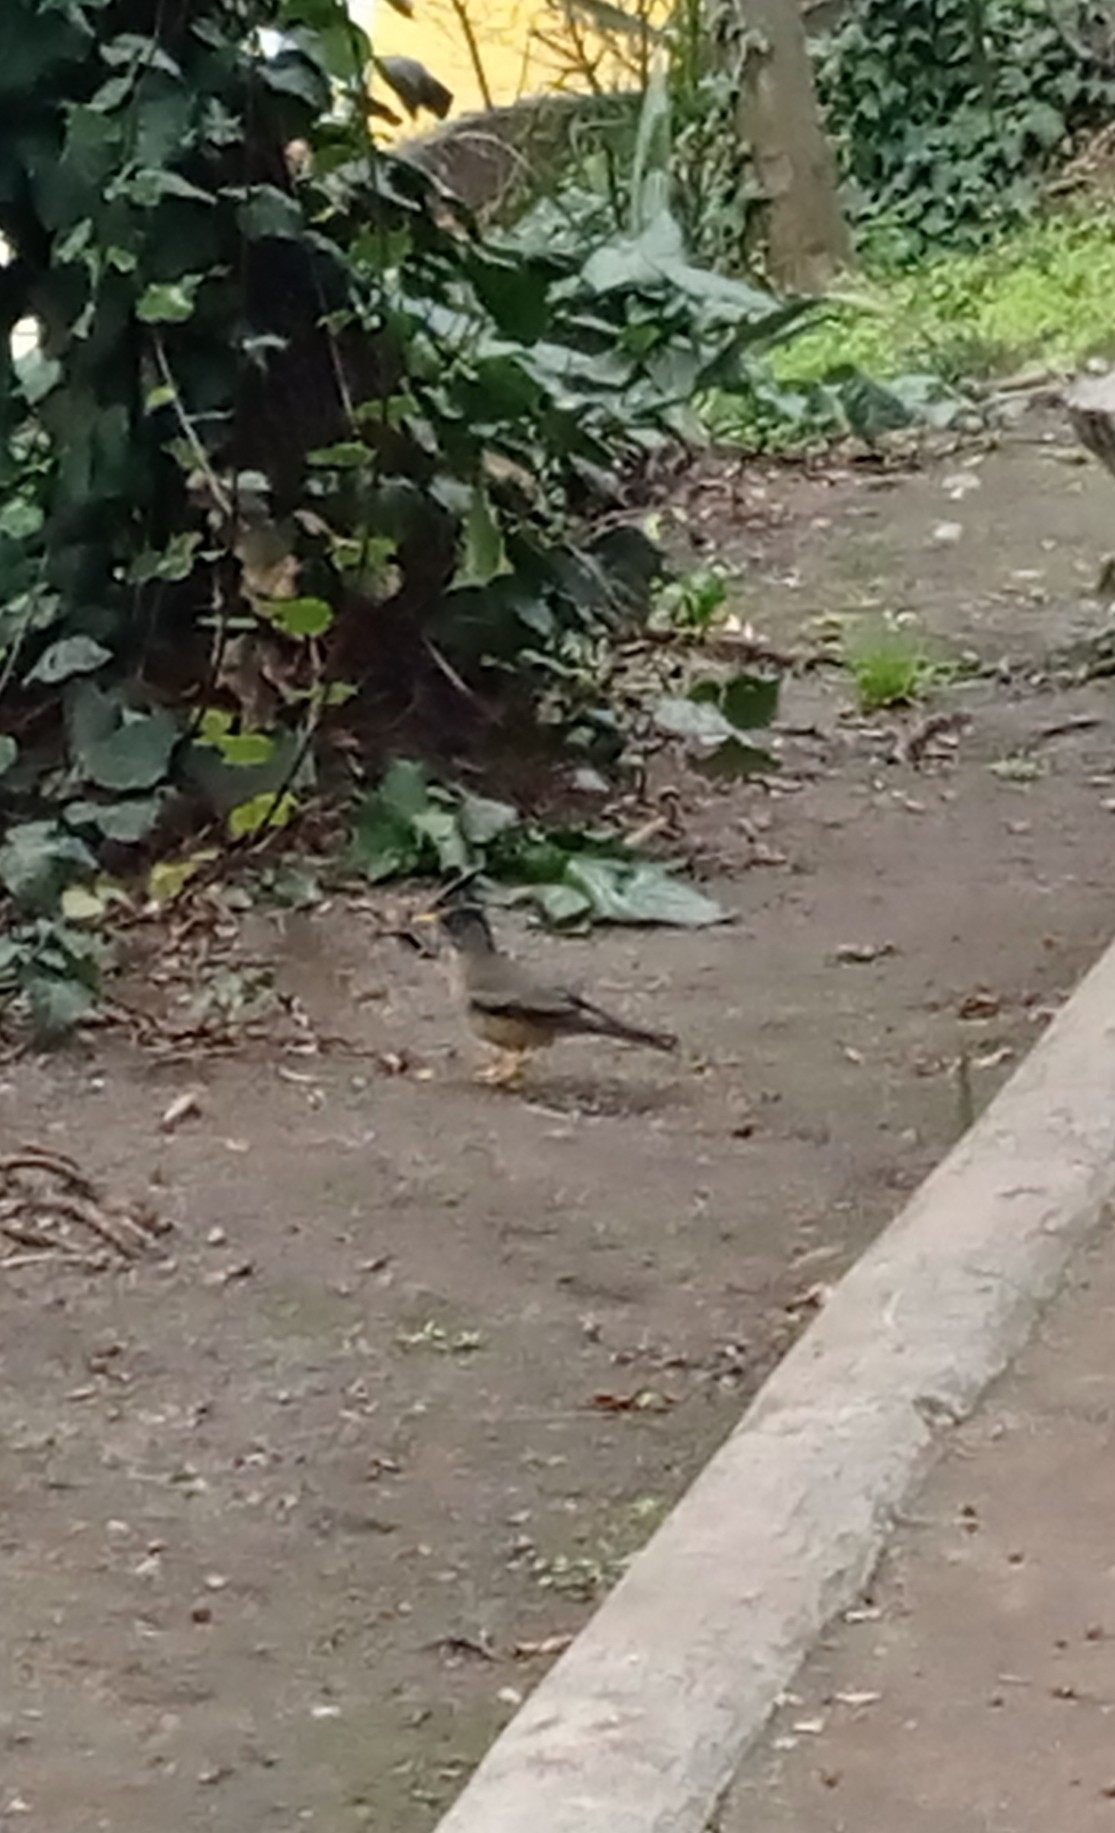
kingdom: Animalia
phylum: Chordata
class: Aves
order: Passeriformes
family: Turdidae
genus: Turdus
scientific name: Turdus falcklandii
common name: Austral thrush
